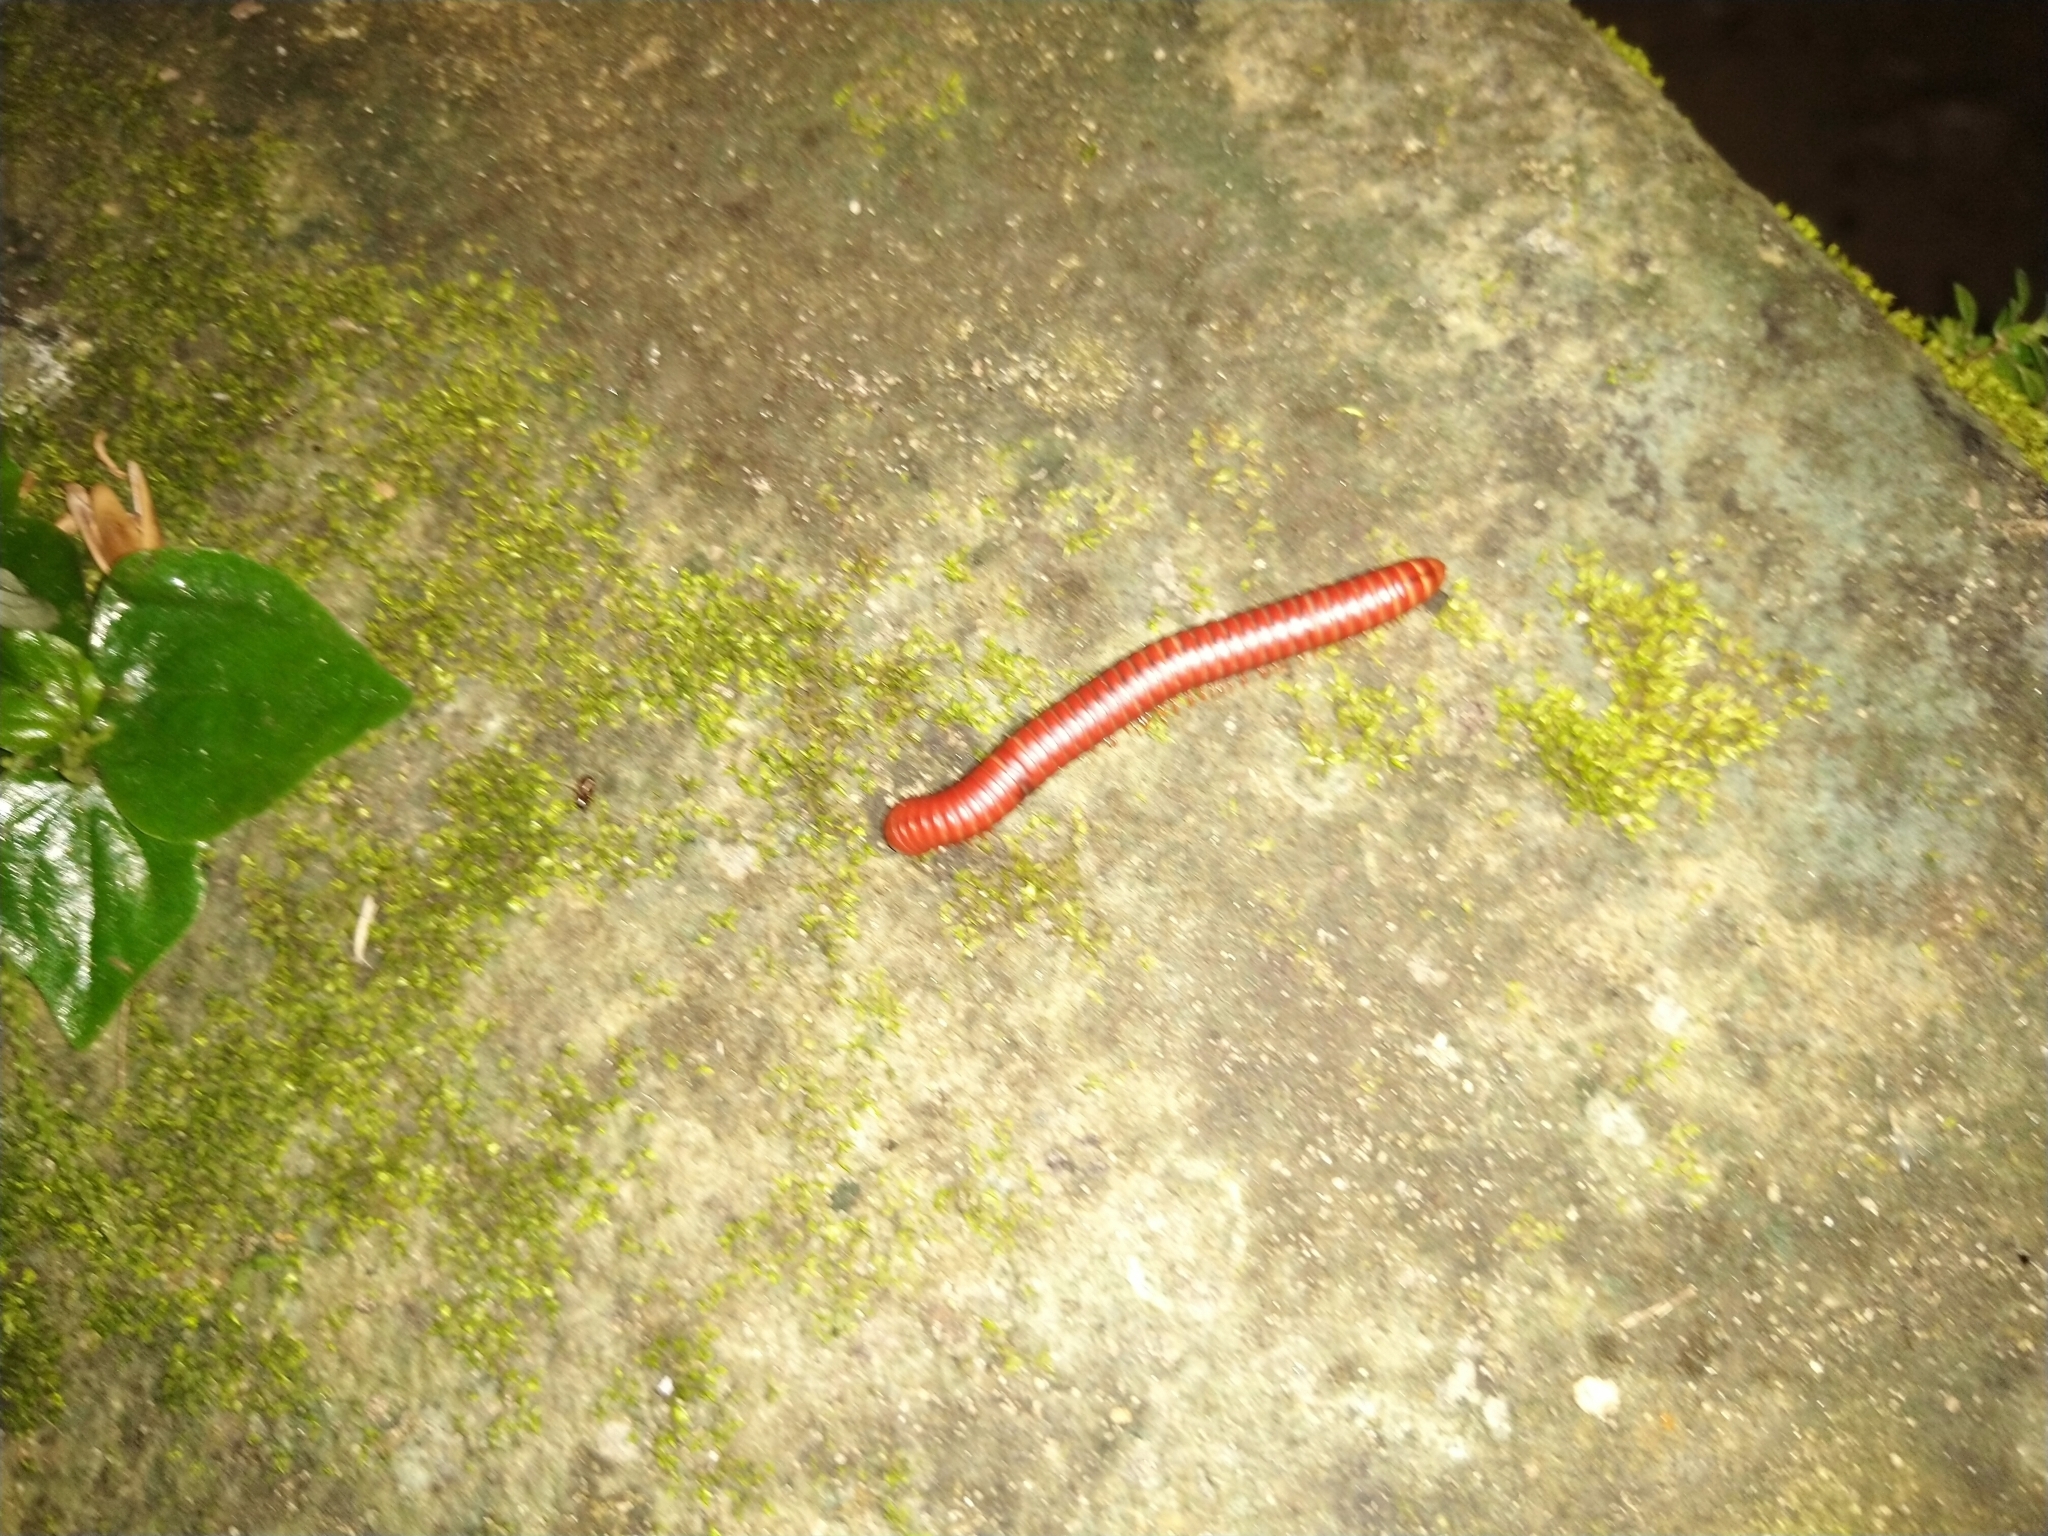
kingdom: Animalia
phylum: Arthropoda
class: Diplopoda
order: Spirobolida
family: Pachybolidae
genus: Trigoniulus
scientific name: Trigoniulus corallinus
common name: Millipede
